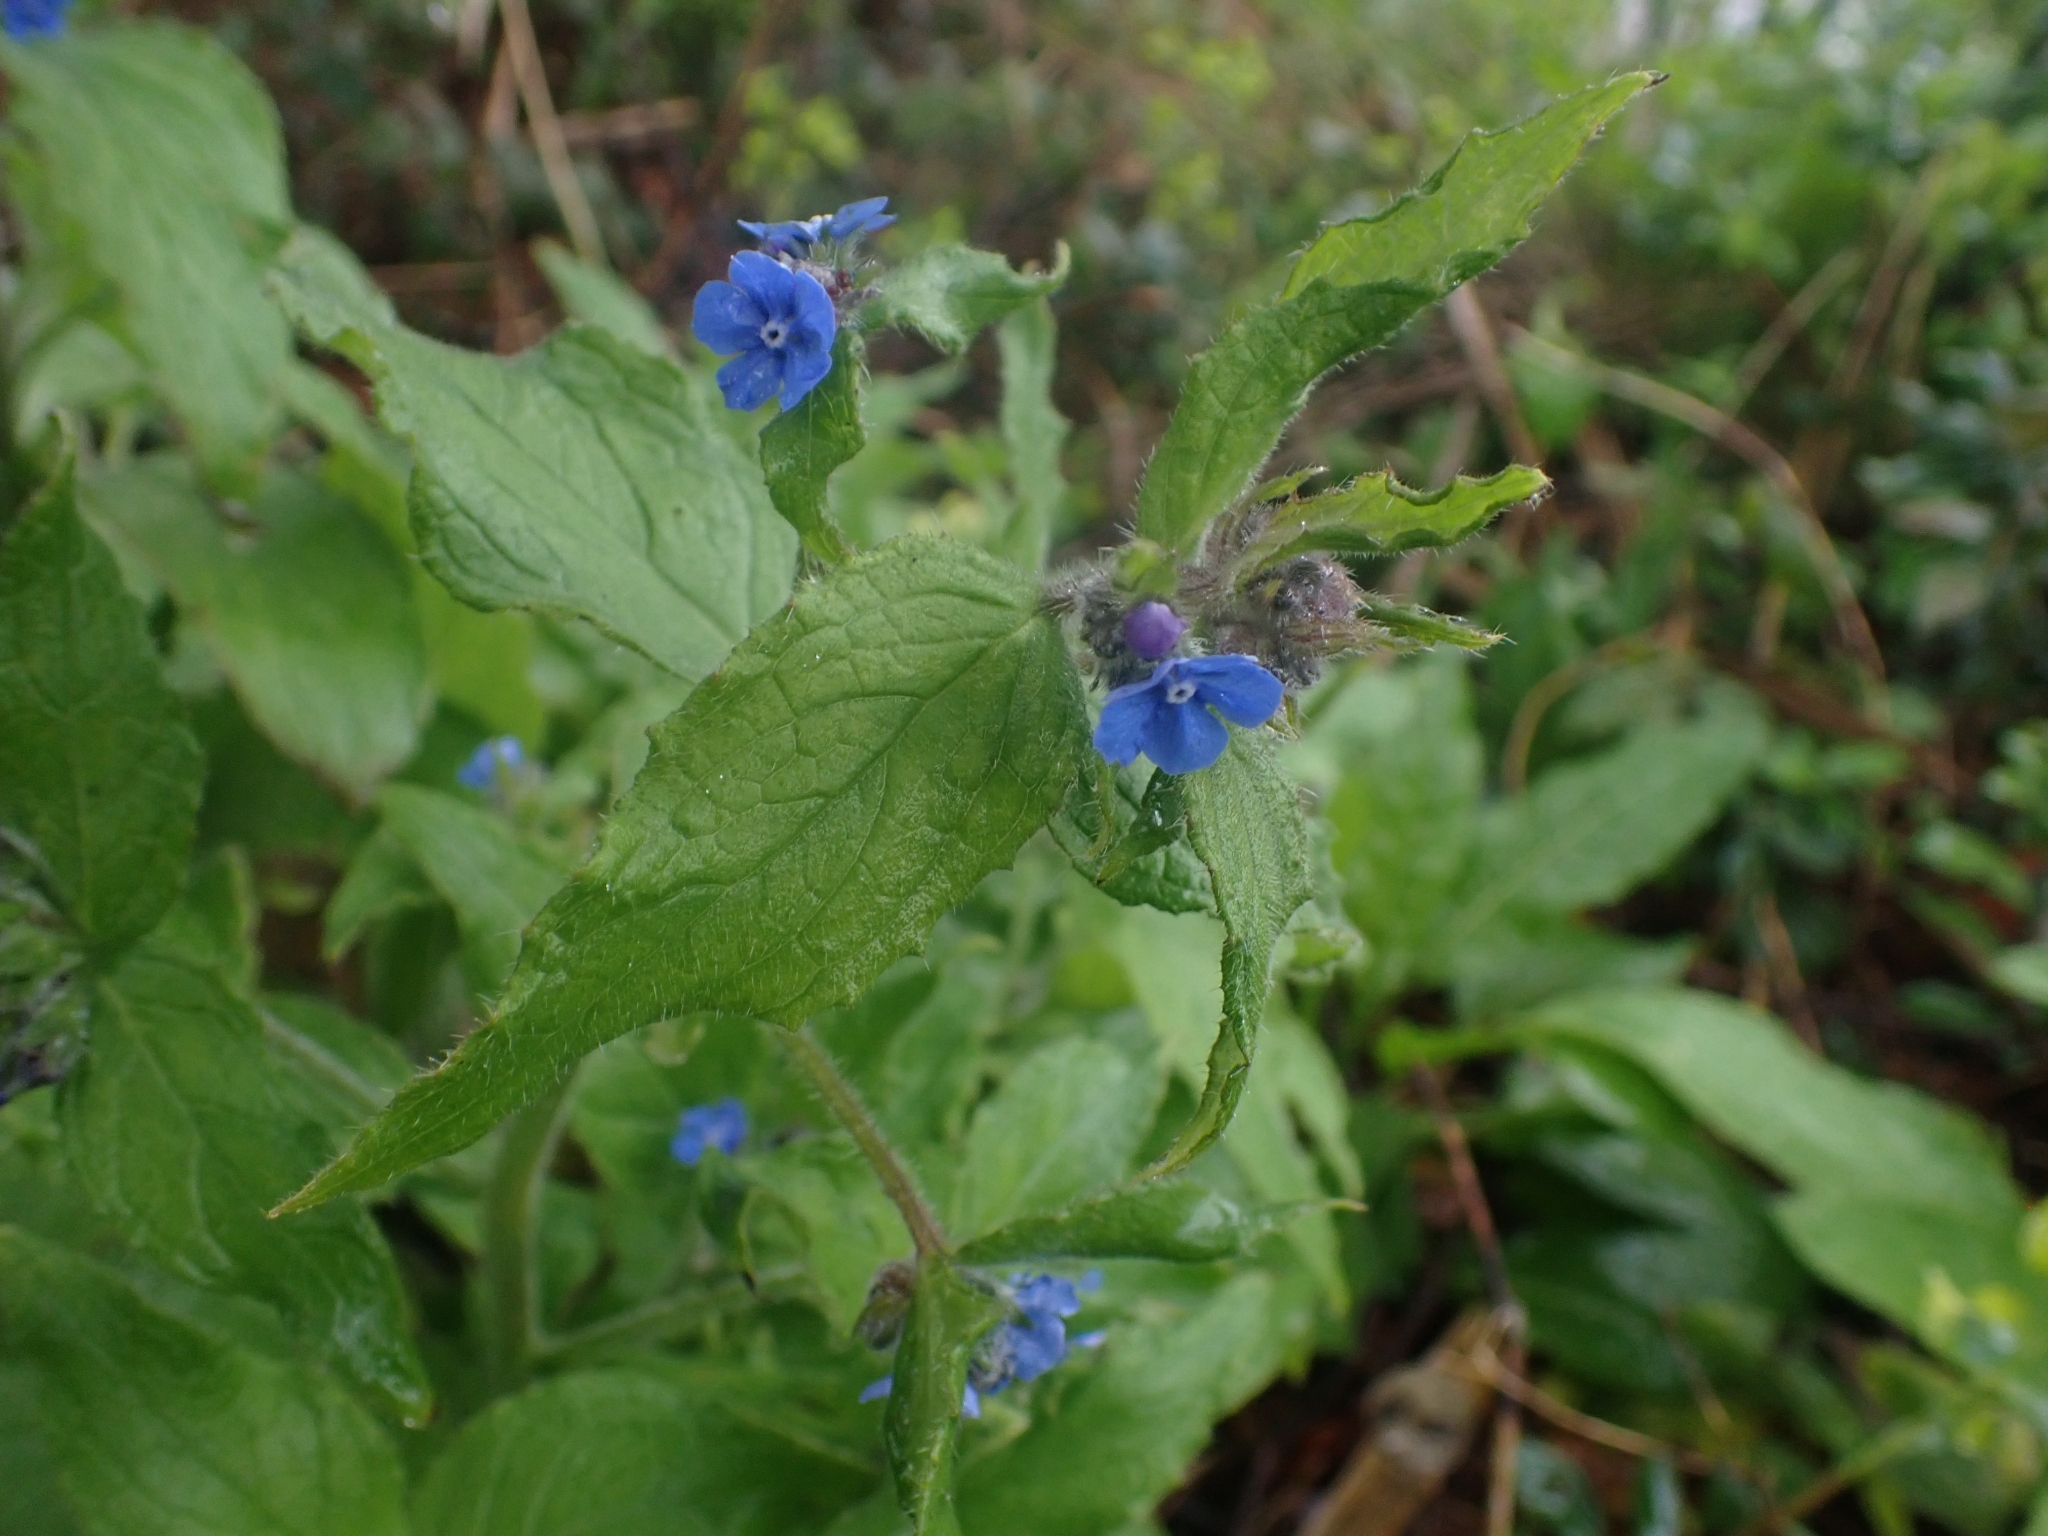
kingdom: Plantae
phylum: Tracheophyta
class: Magnoliopsida
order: Boraginales
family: Boraginaceae
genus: Pentaglottis
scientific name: Pentaglottis sempervirens
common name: Green alkanet
